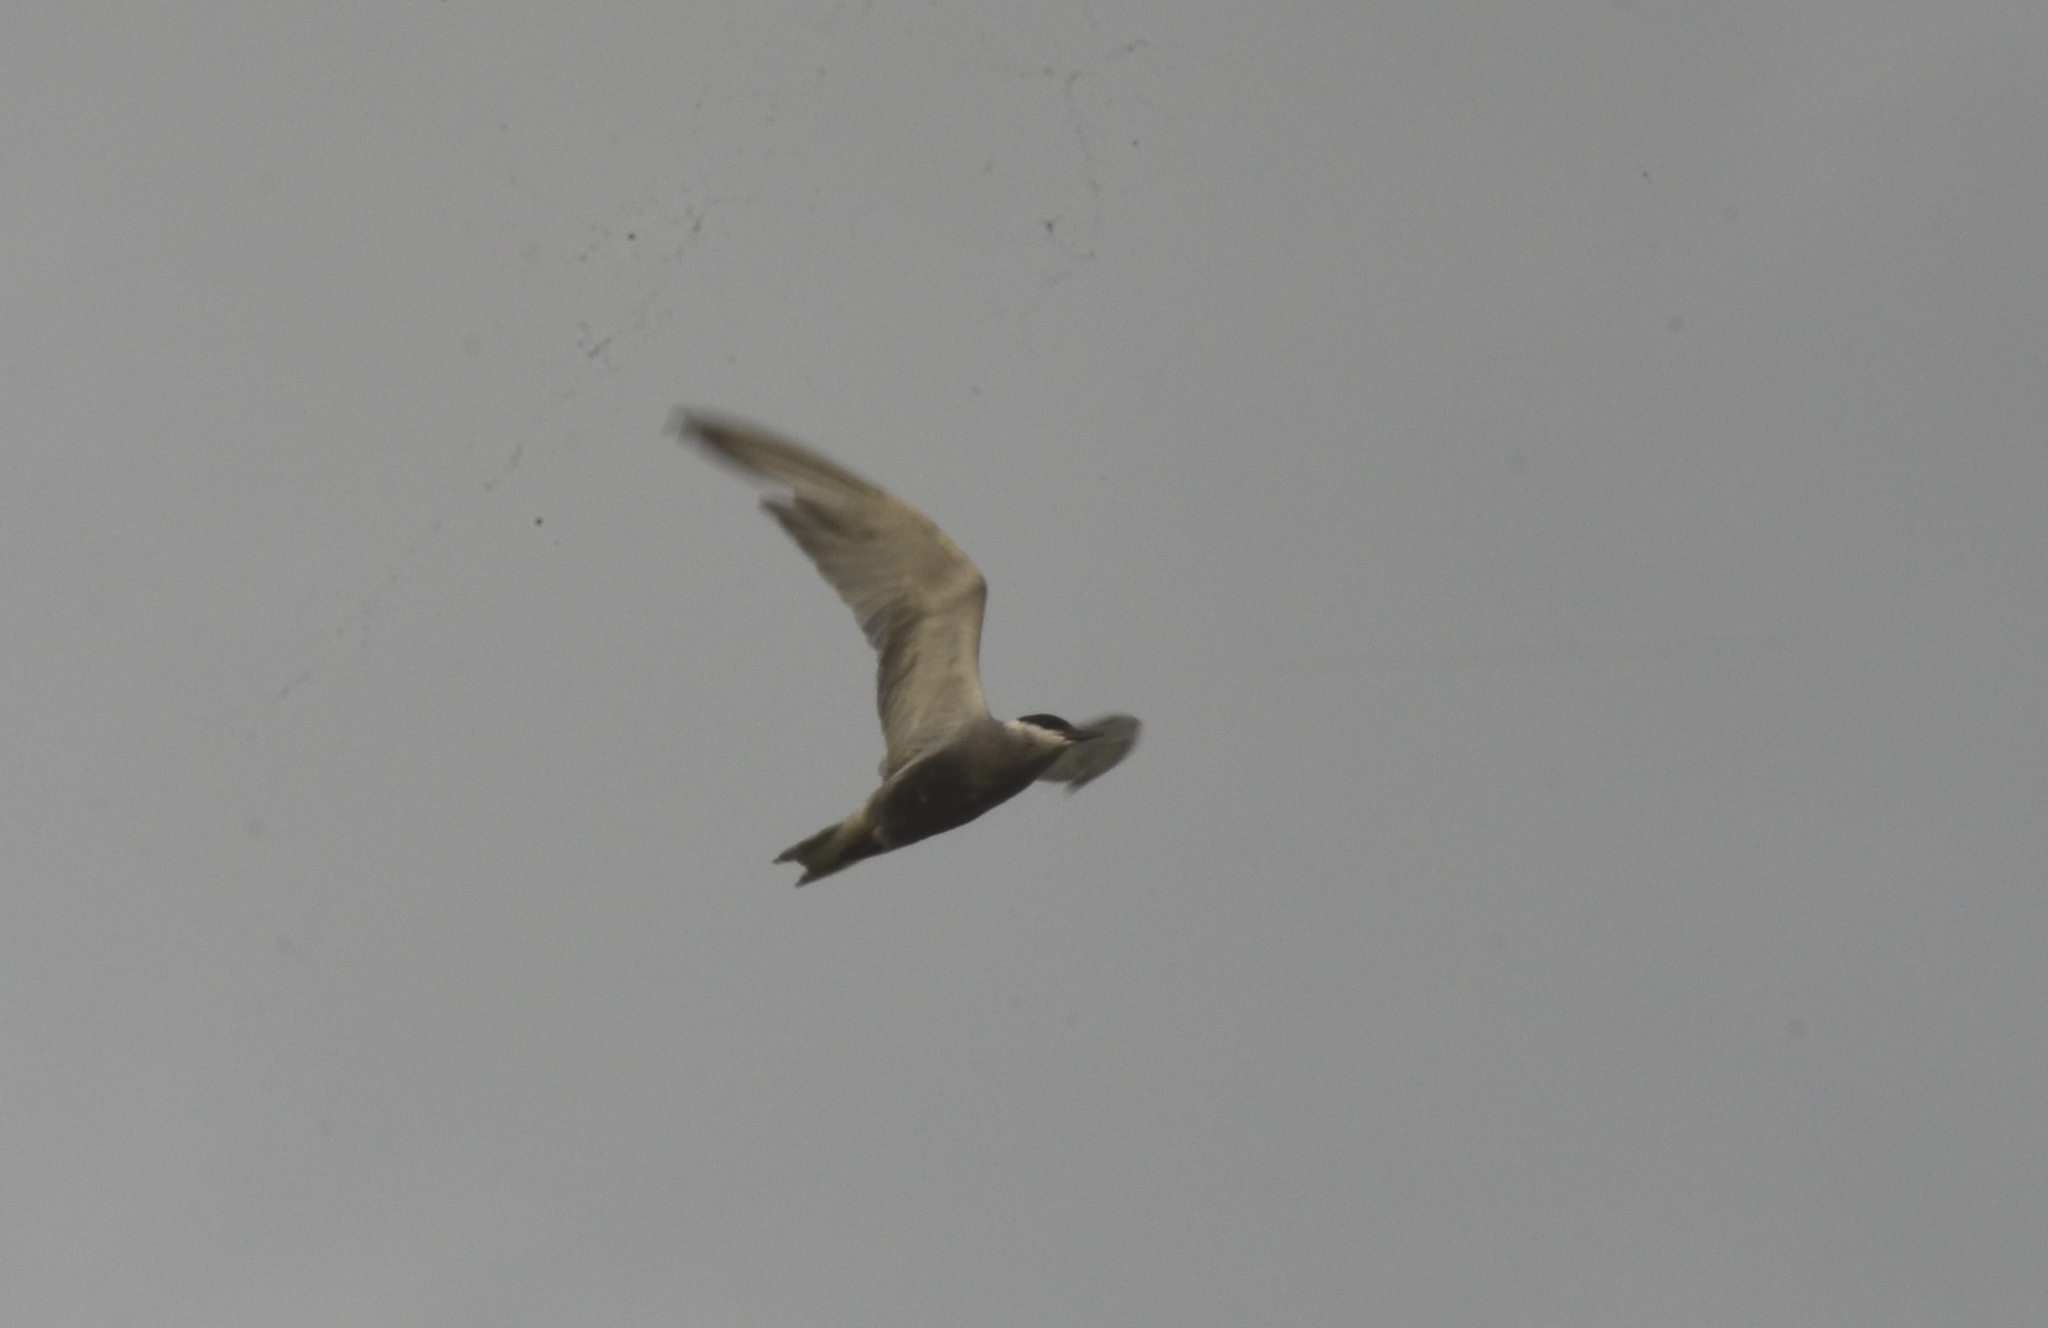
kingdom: Animalia
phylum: Chordata
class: Aves
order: Charadriiformes
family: Laridae
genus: Chlidonias
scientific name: Chlidonias hybrida
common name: Whiskered tern
